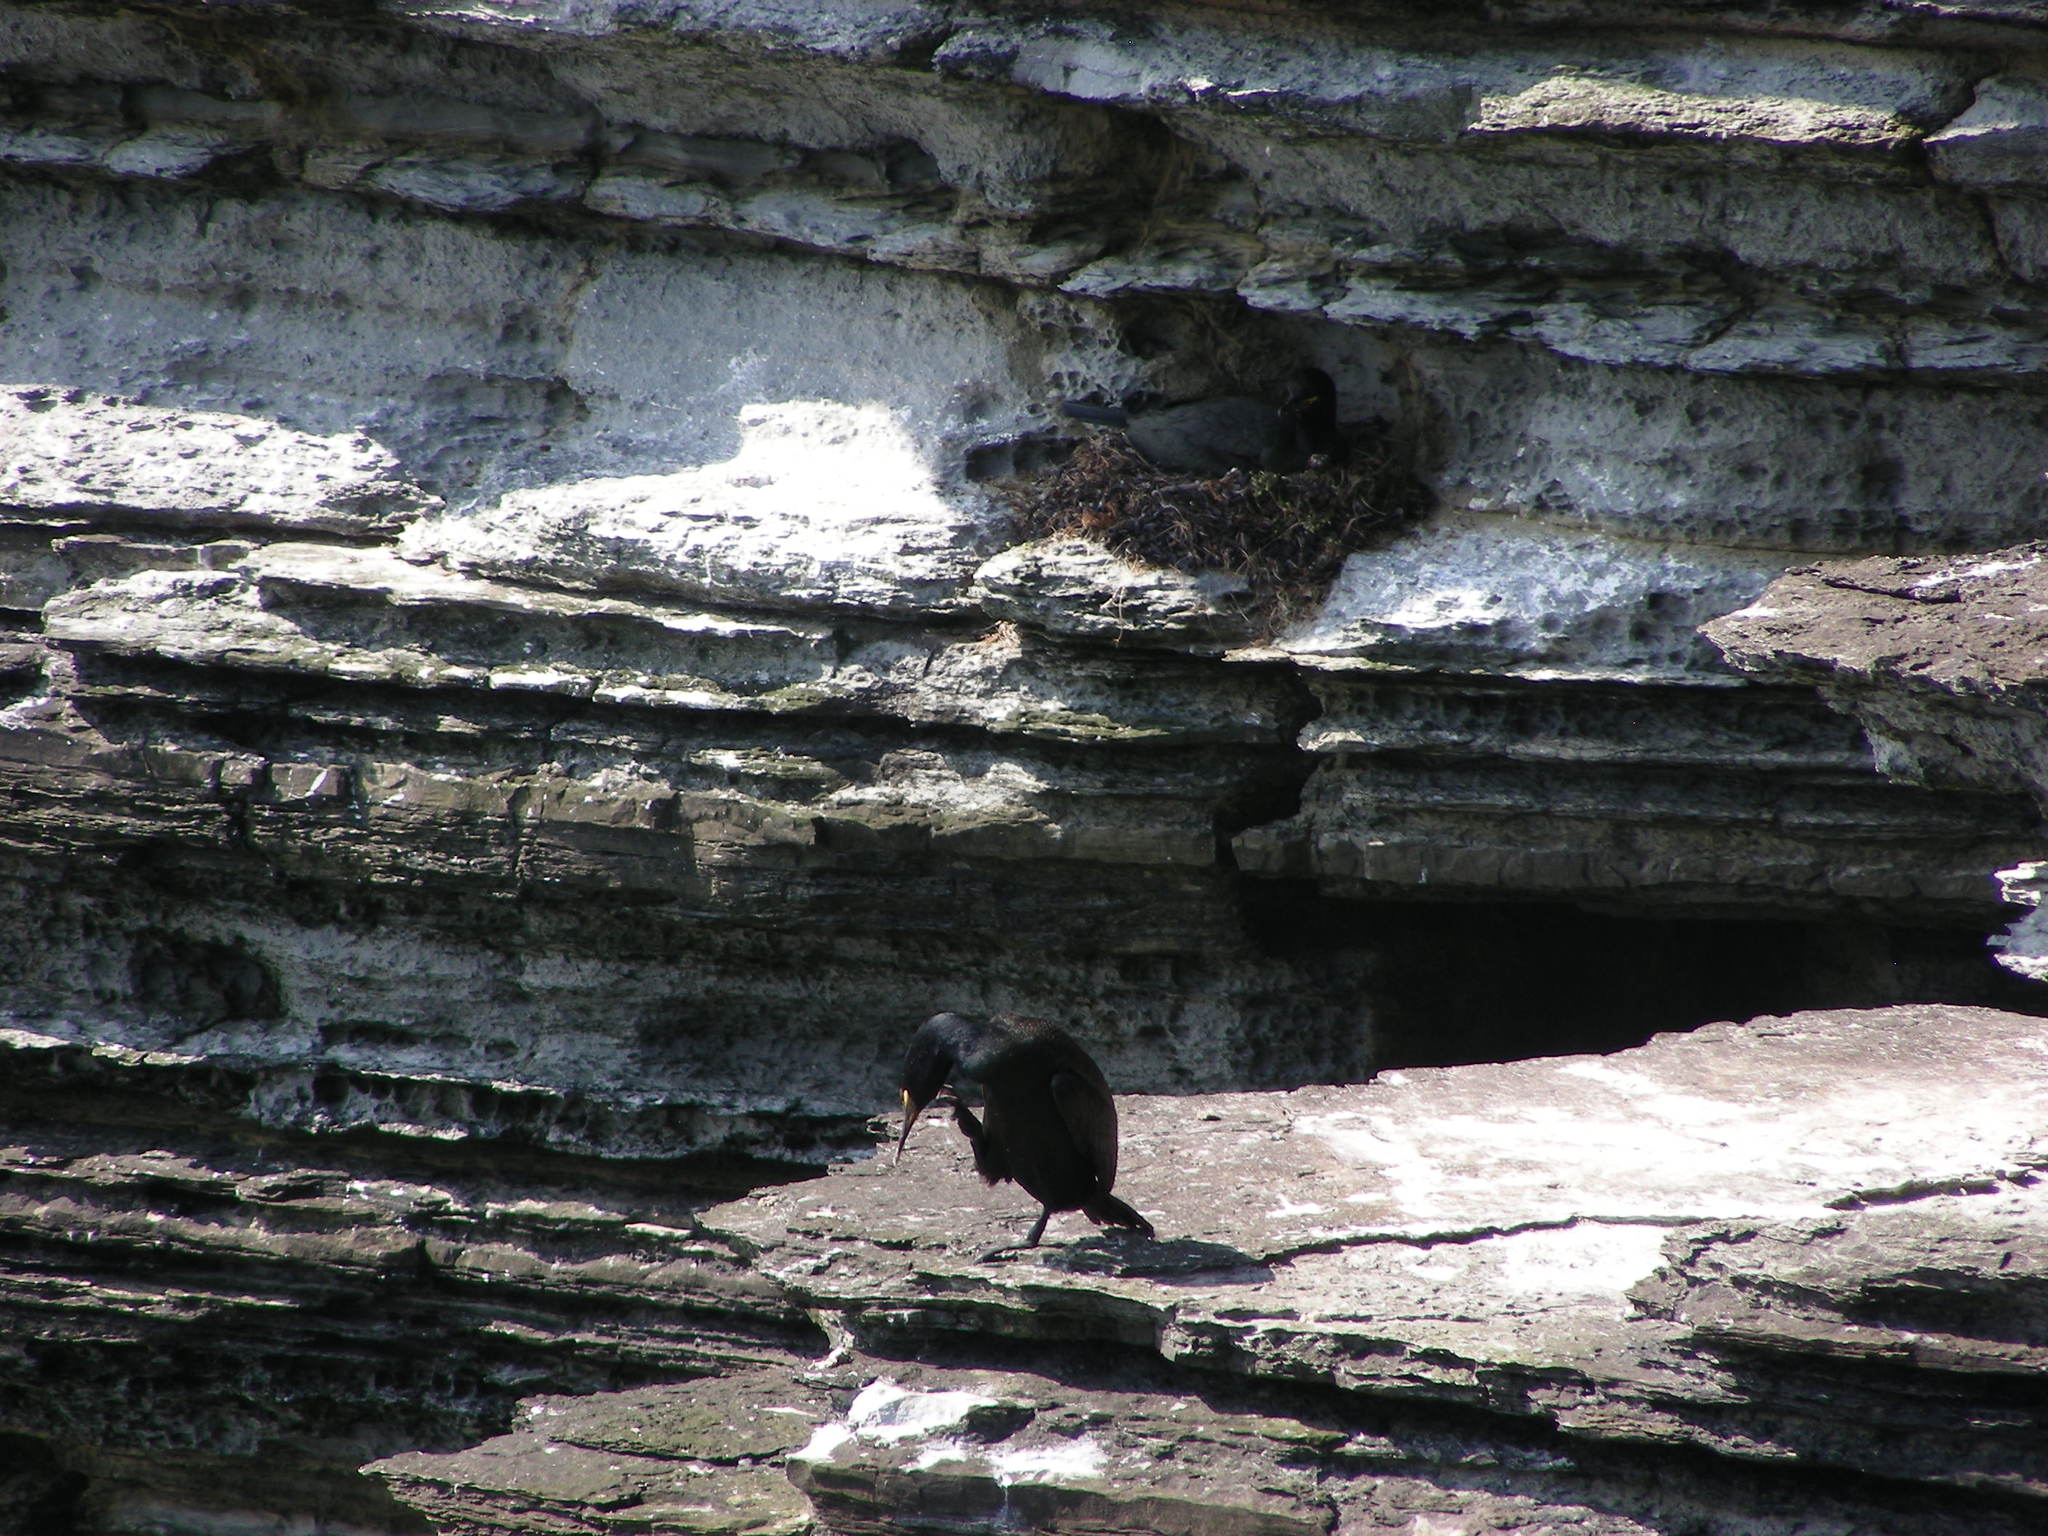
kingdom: Animalia
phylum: Chordata
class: Aves
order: Suliformes
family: Phalacrocoracidae
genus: Phalacrocorax
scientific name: Phalacrocorax aristotelis
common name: European shag
